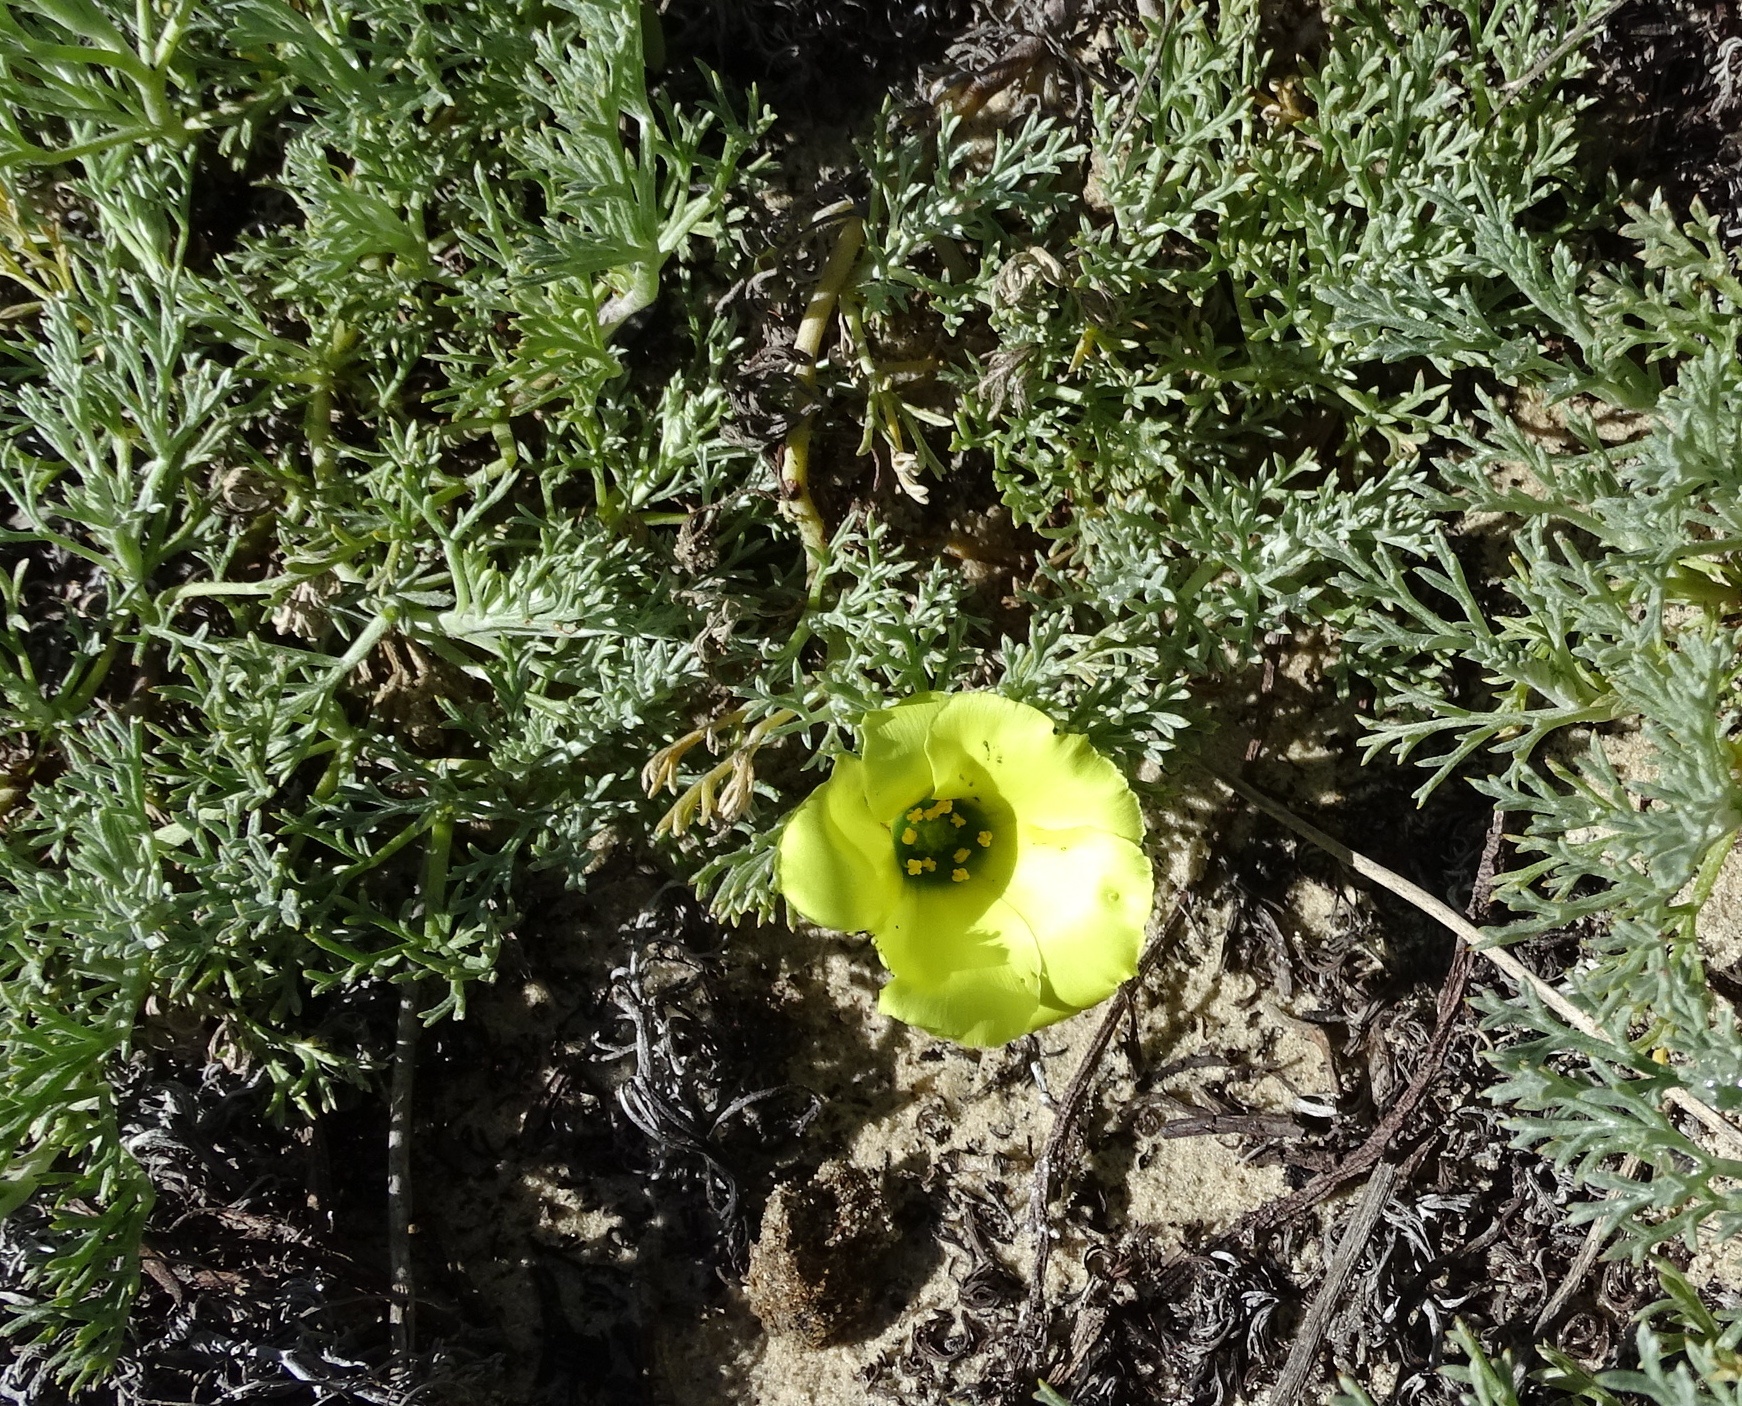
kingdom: Plantae
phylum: Tracheophyta
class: Magnoliopsida
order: Malvales
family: Neuradaceae
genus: Grielum
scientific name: Grielum grandiflorum
